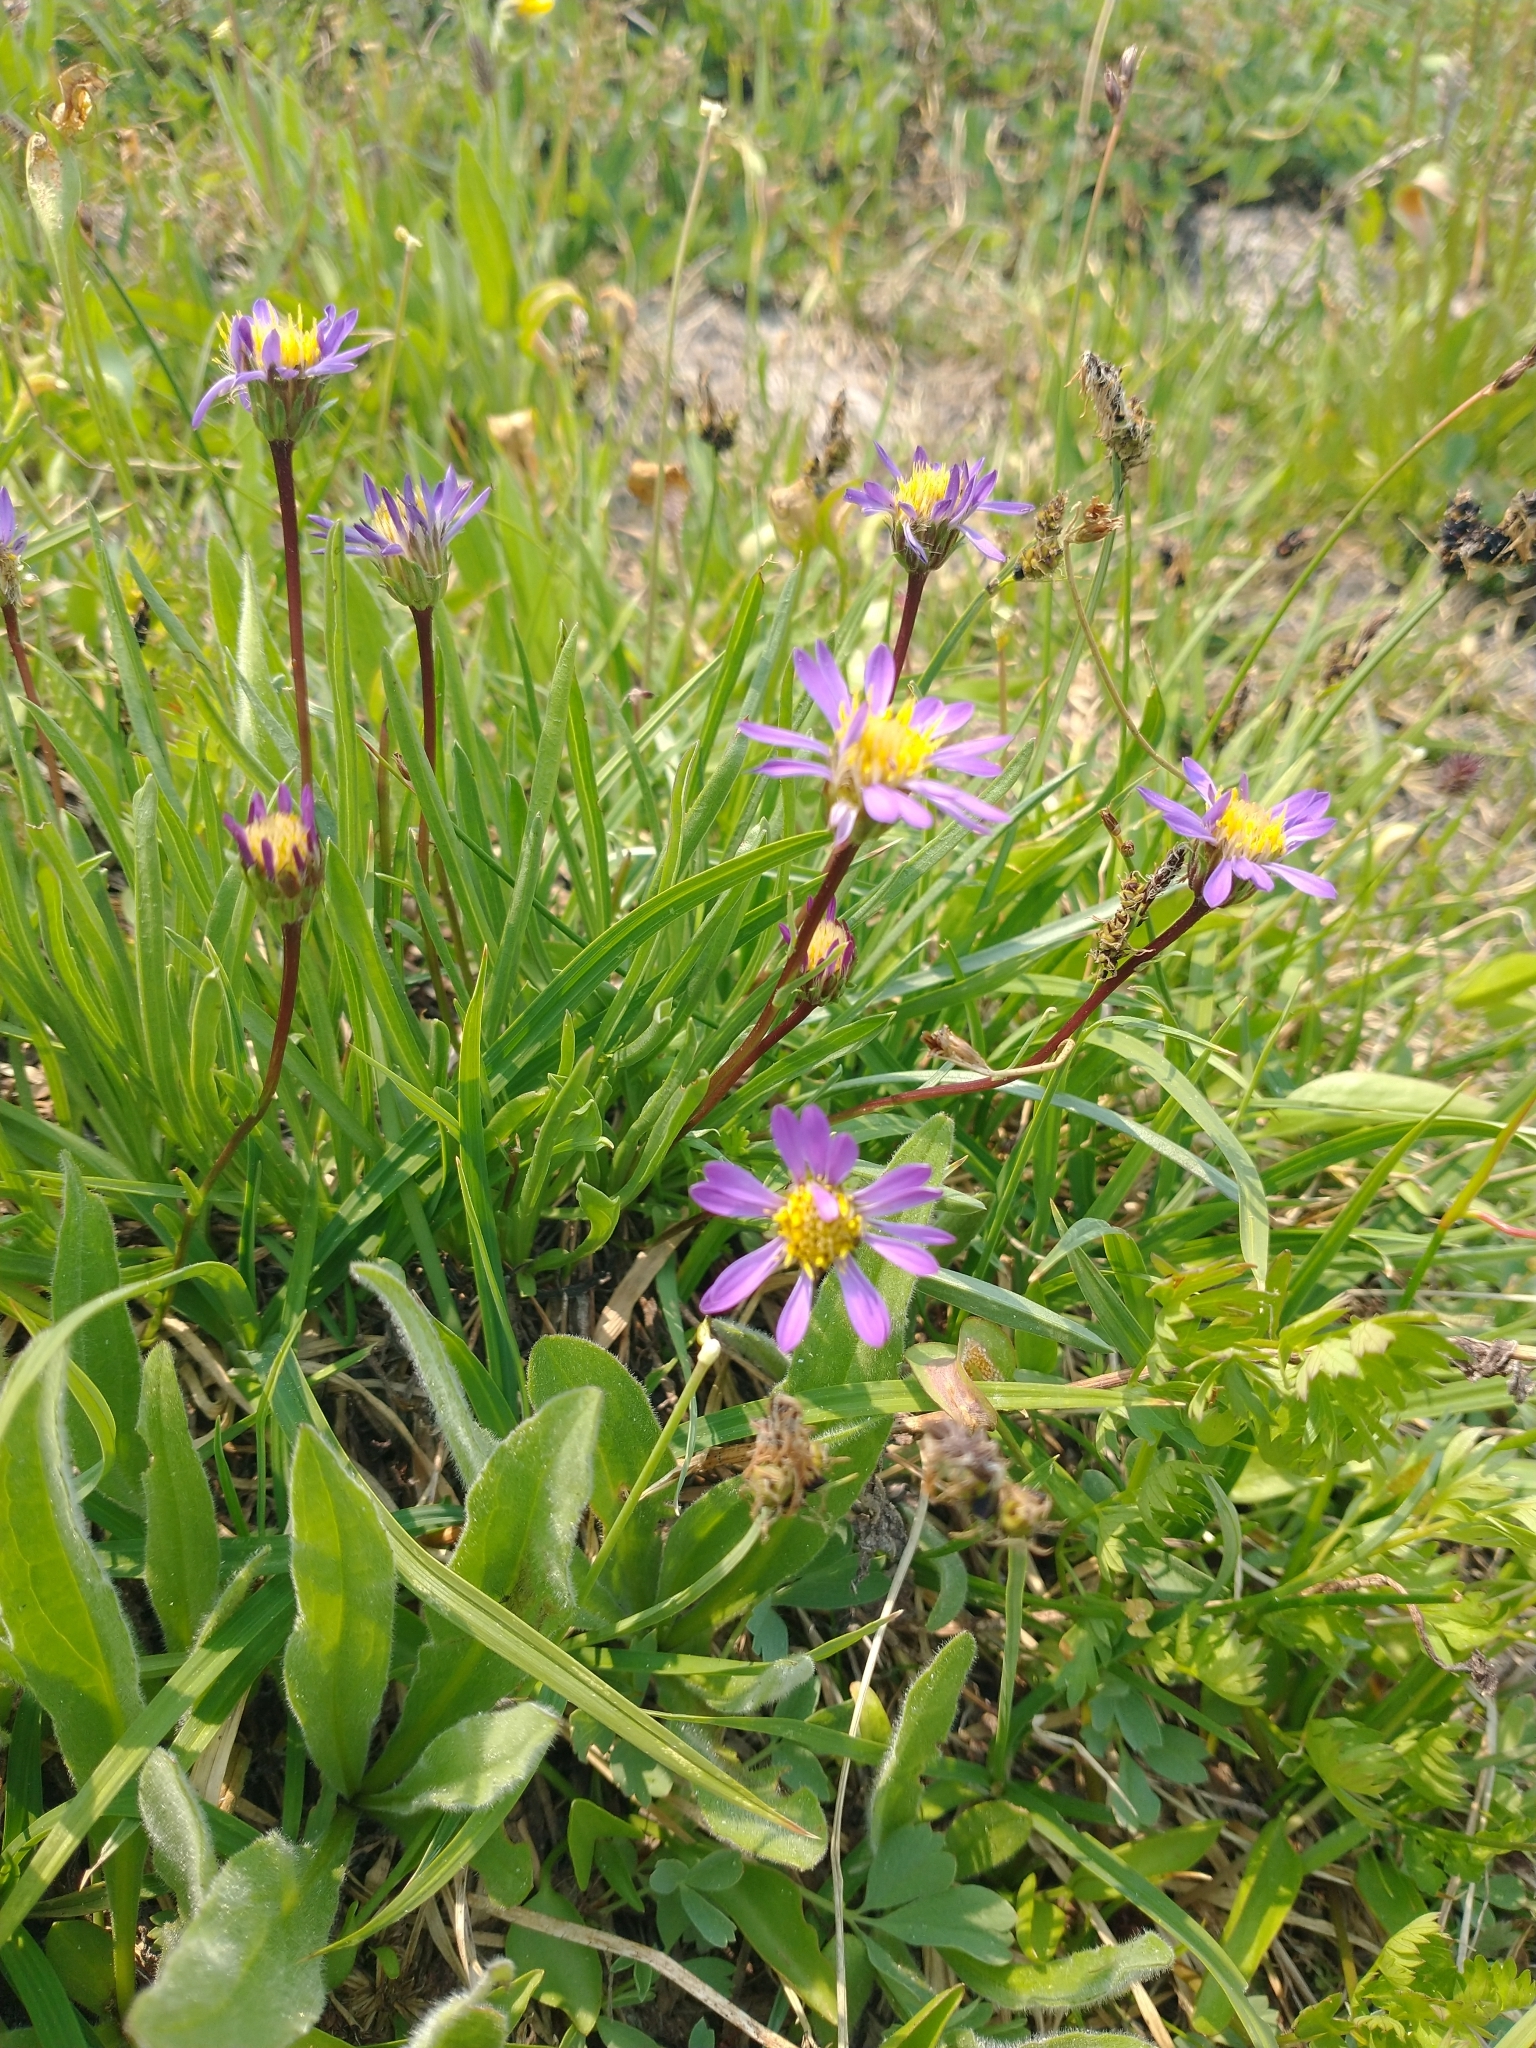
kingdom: Plantae
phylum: Tracheophyta
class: Magnoliopsida
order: Asterales
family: Asteraceae
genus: Oreostemma
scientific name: Oreostemma alpigenum
